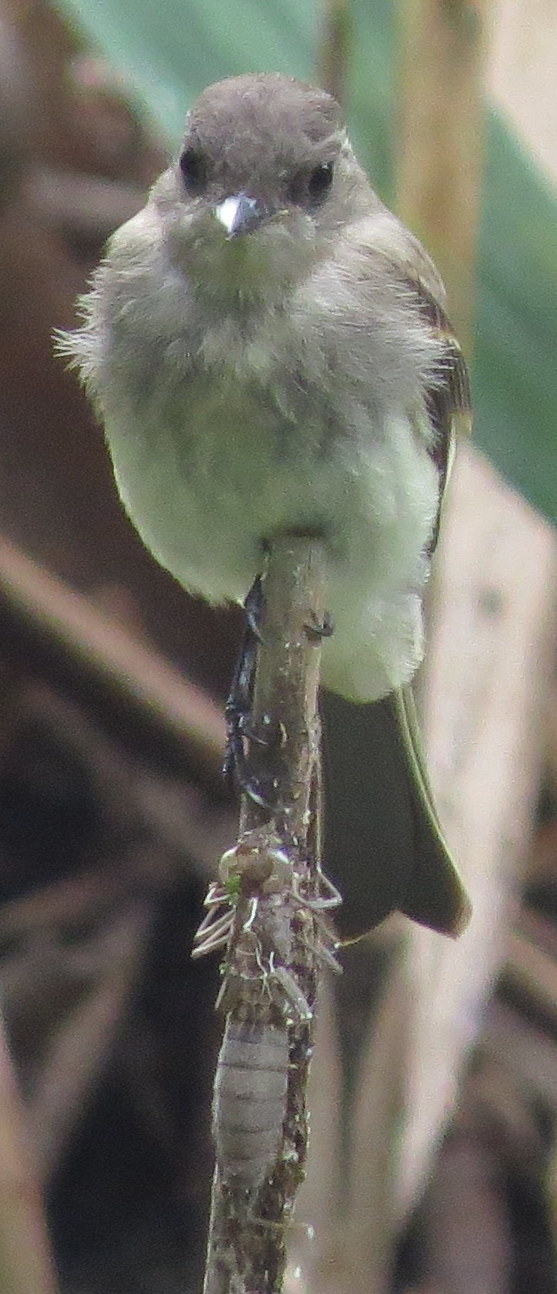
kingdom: Animalia
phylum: Chordata
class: Aves
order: Passeriformes
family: Tyrannidae
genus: Sayornis
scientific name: Sayornis phoebe
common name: Eastern phoebe
